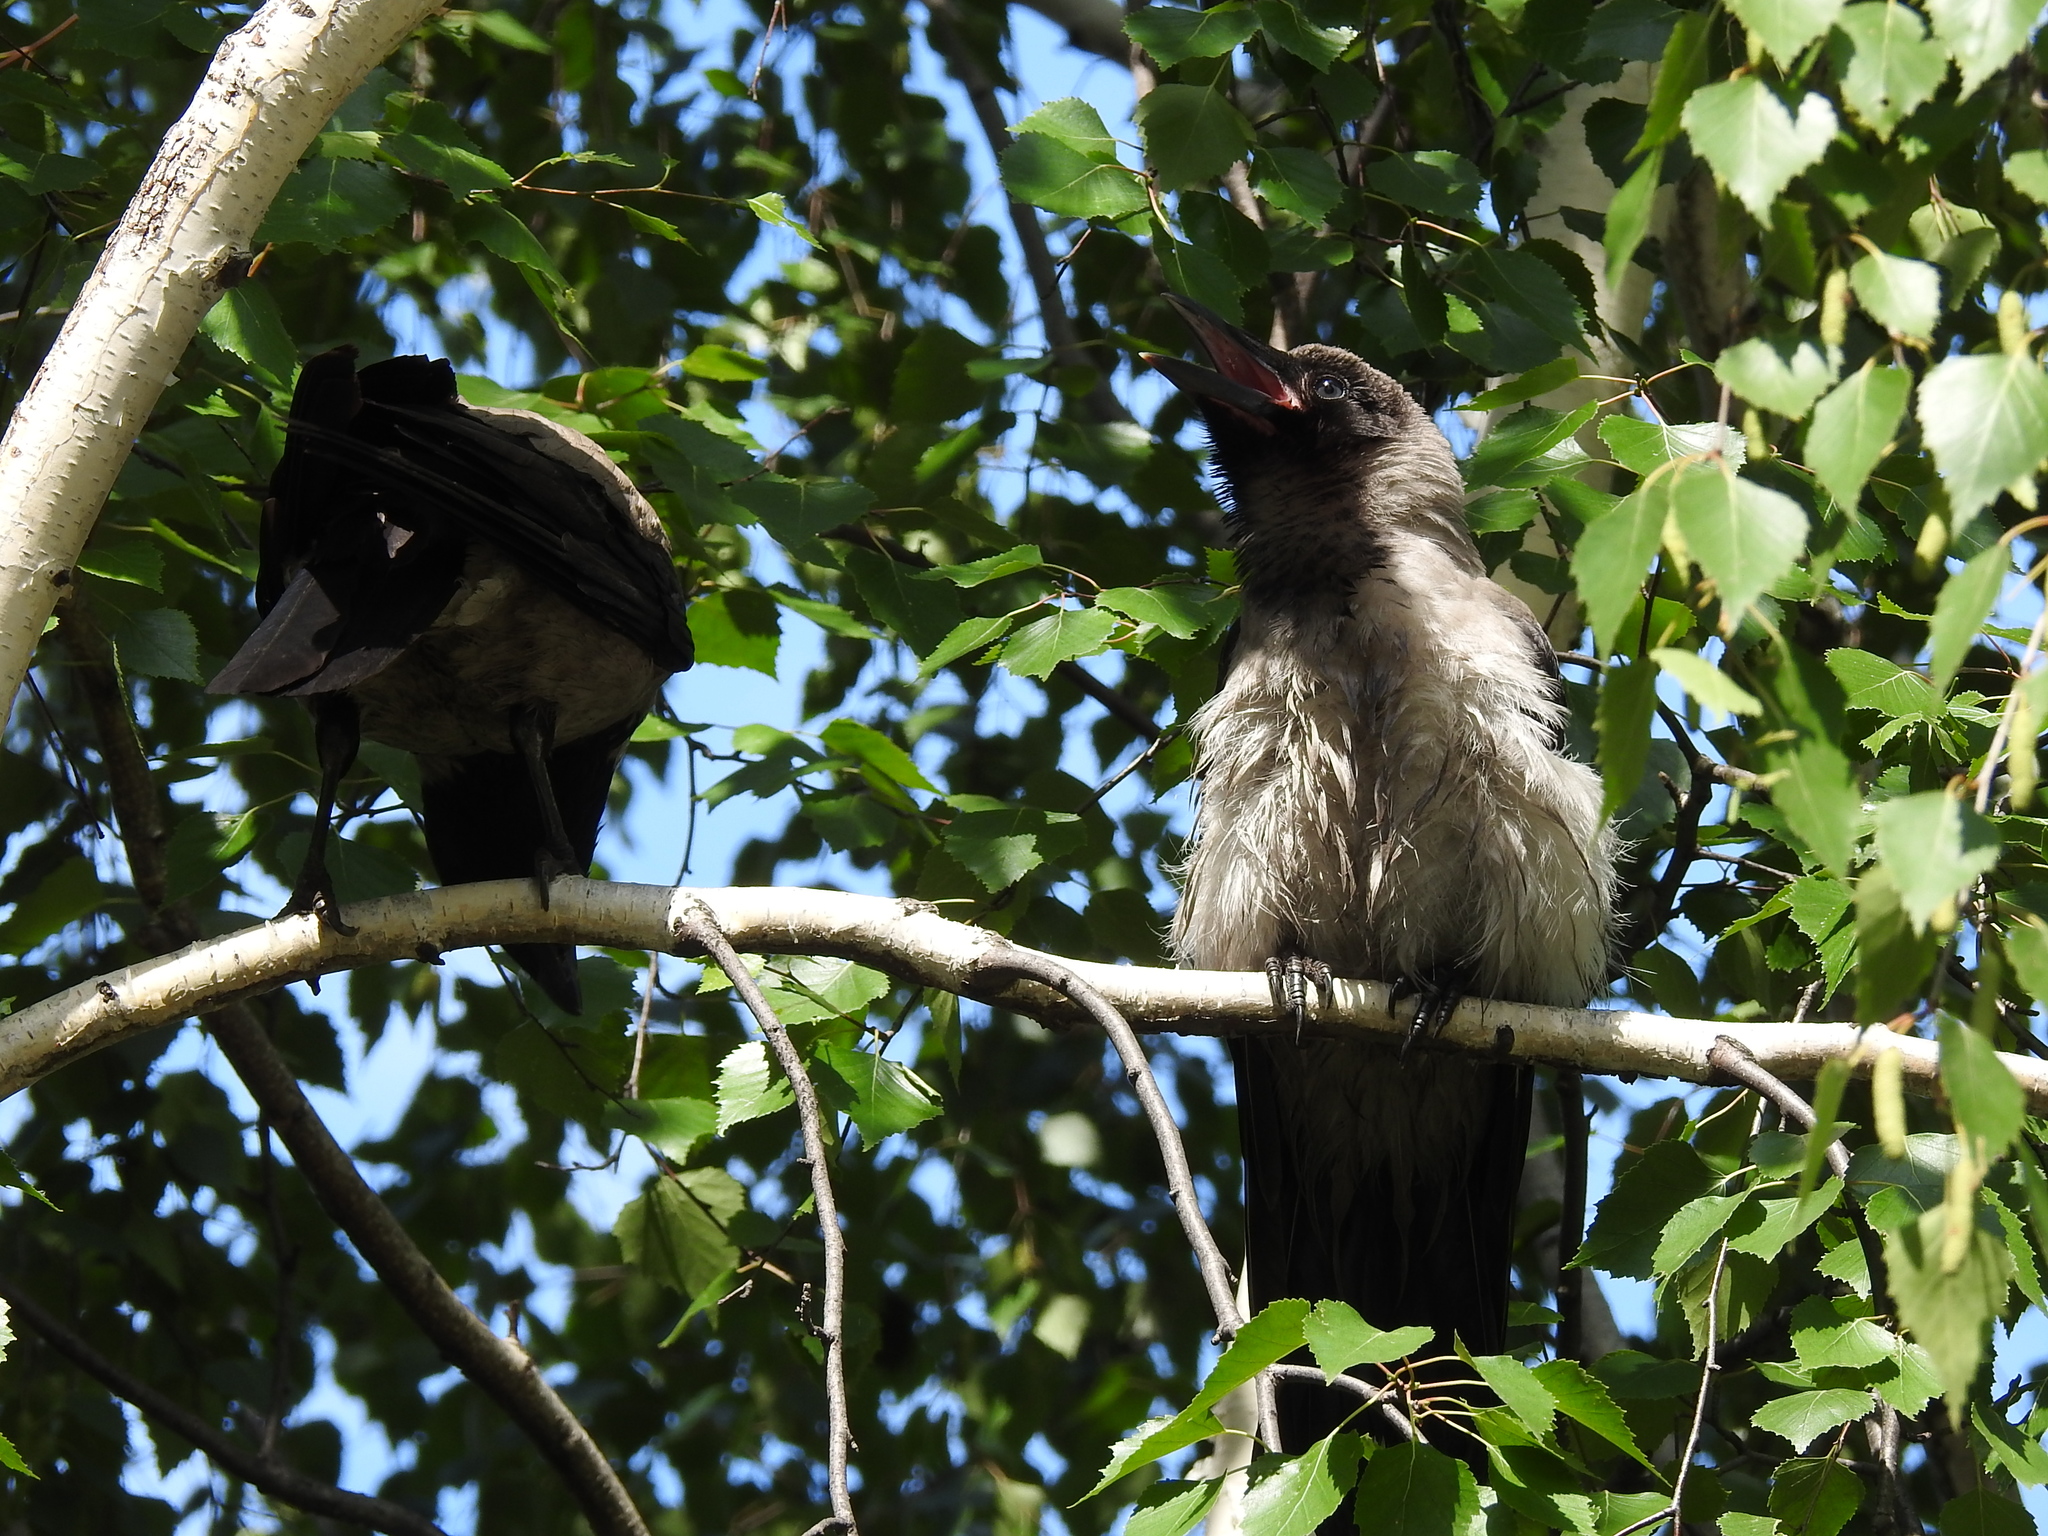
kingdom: Animalia
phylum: Chordata
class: Aves
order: Passeriformes
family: Corvidae
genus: Corvus
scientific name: Corvus cornix
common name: Hooded crow
